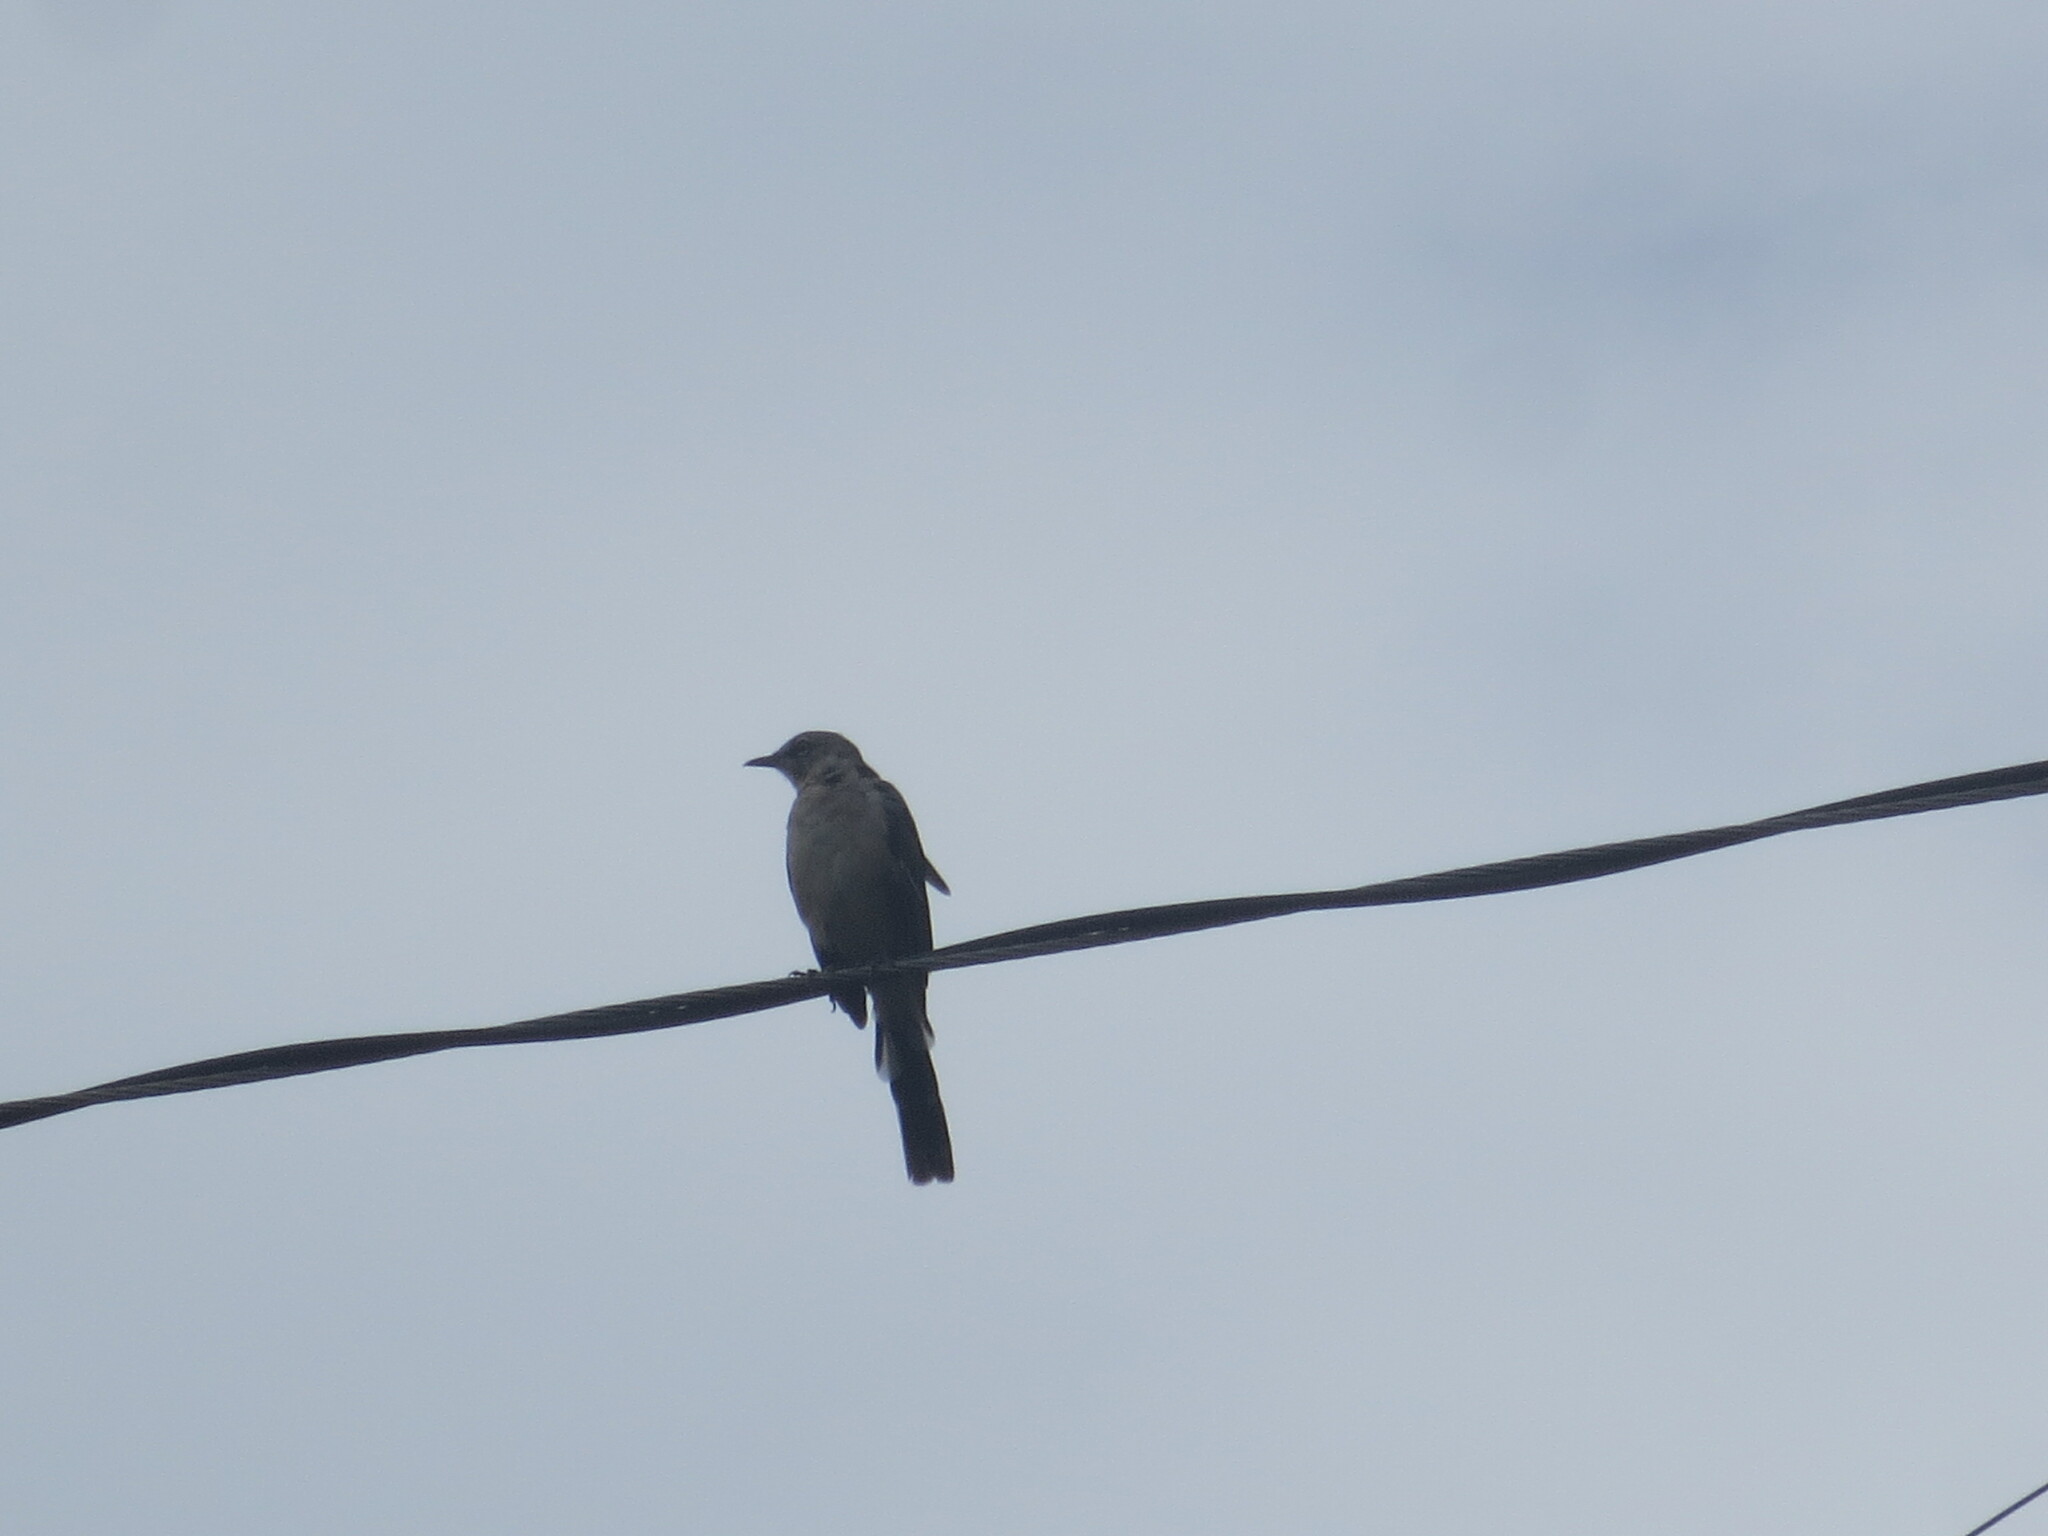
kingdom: Animalia
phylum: Chordata
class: Aves
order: Passeriformes
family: Mimidae
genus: Mimus
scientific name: Mimus polyglottos
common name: Northern mockingbird
